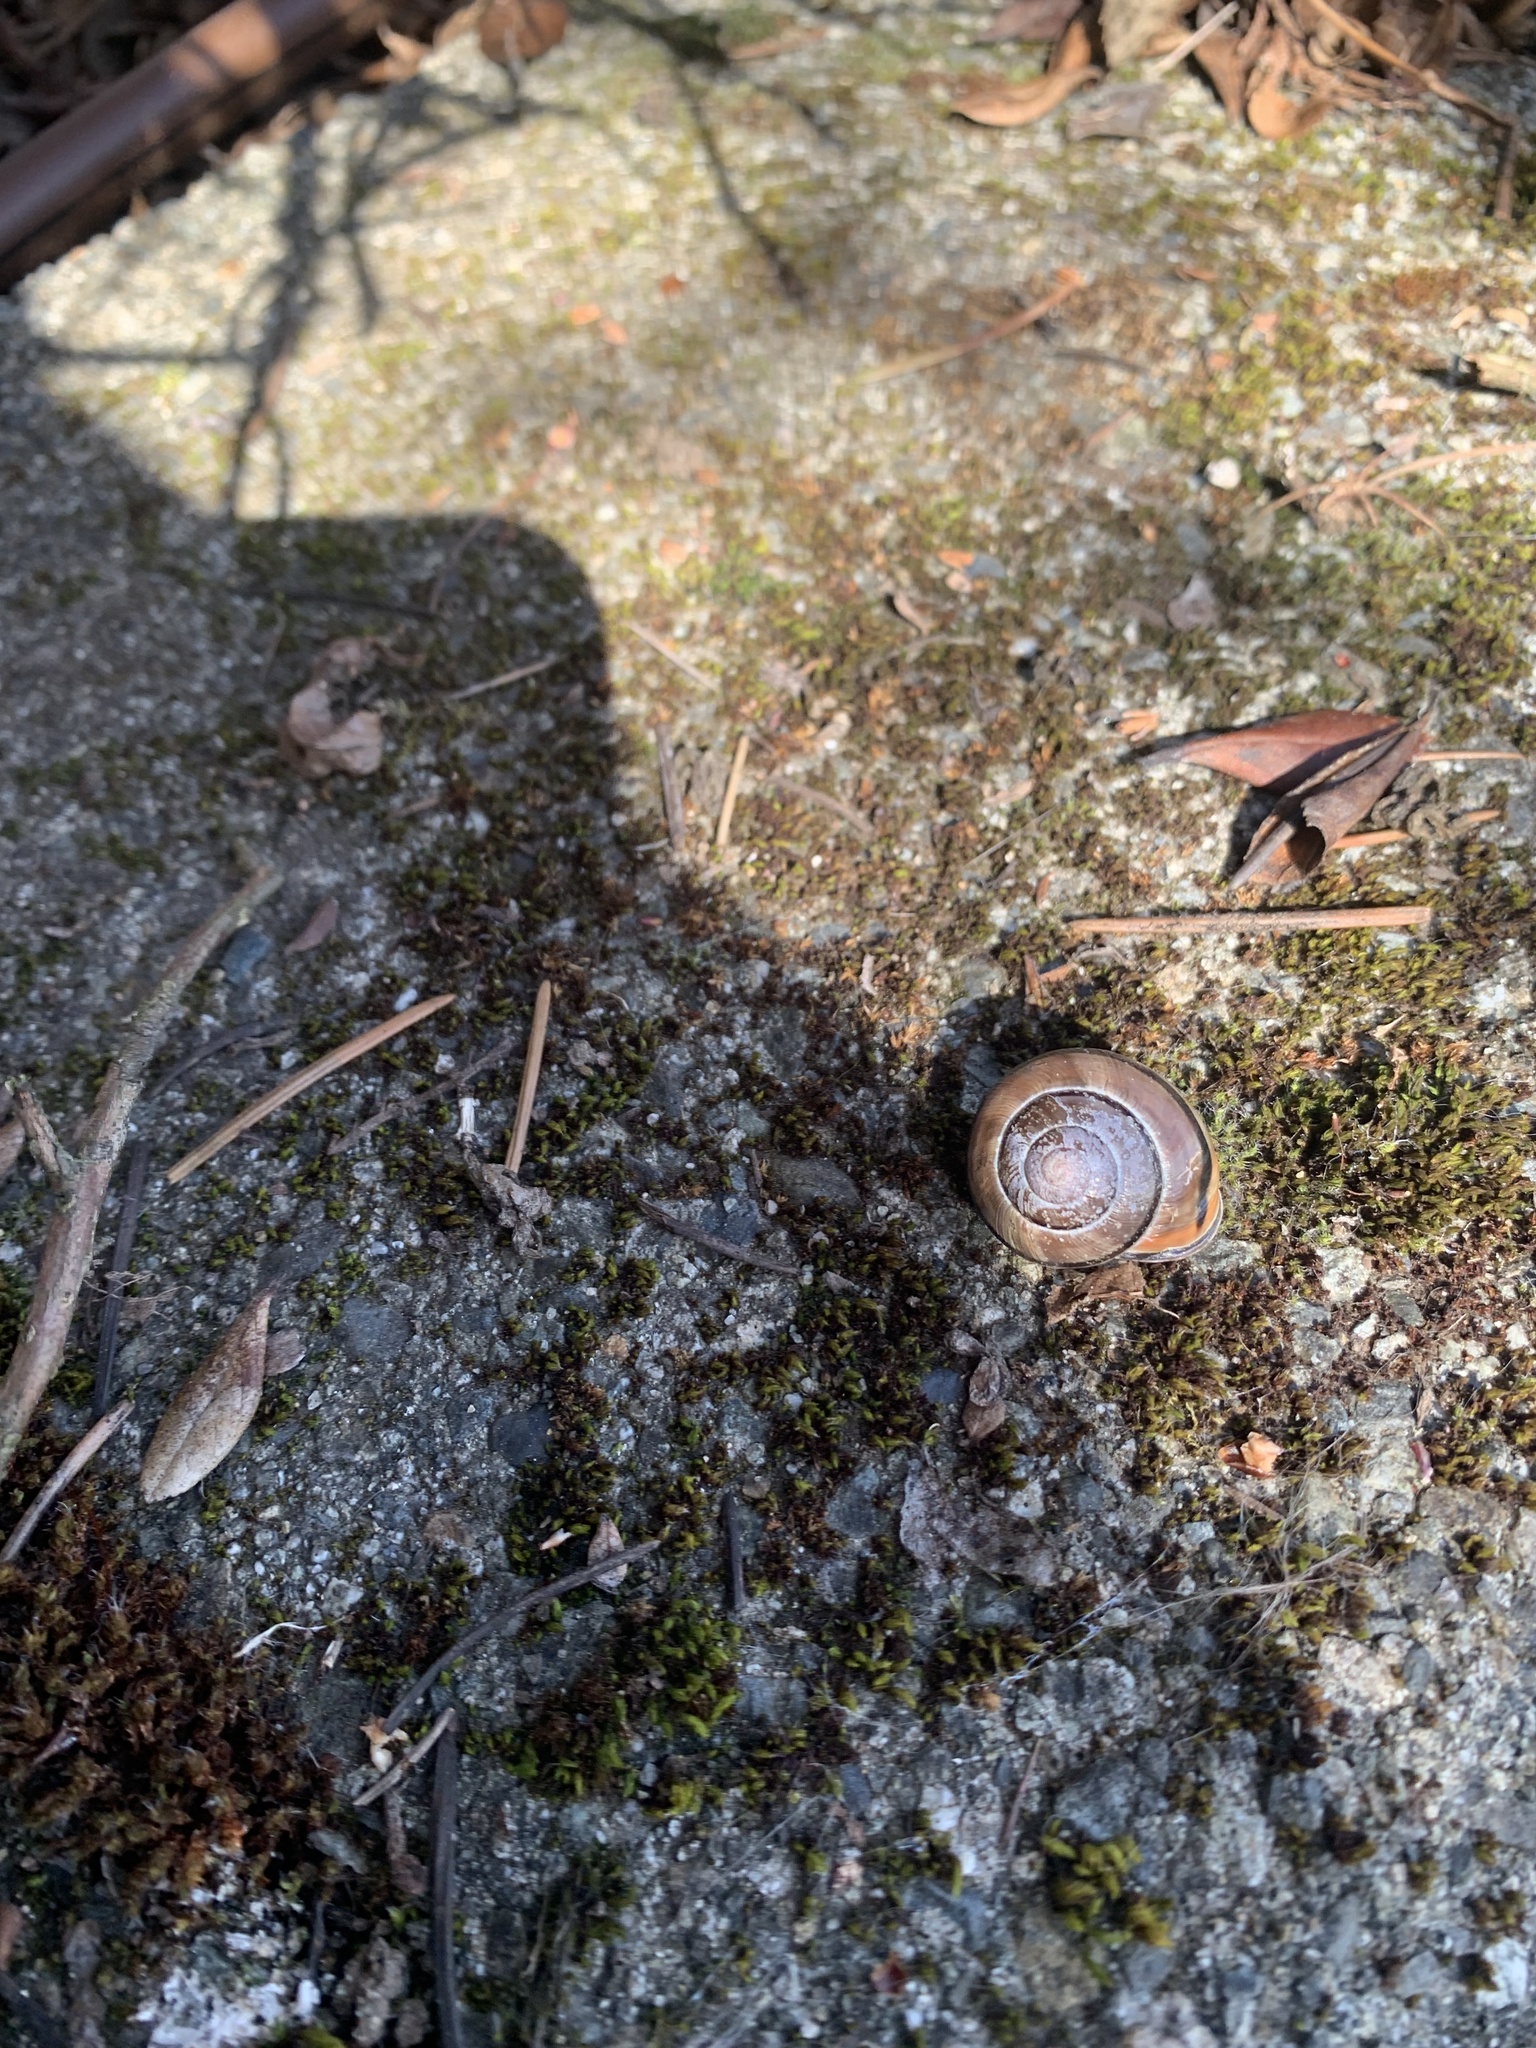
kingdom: Animalia
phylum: Mollusca
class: Gastropoda
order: Stylommatophora
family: Helicidae
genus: Cepaea
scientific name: Cepaea nemoralis
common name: Grovesnail
